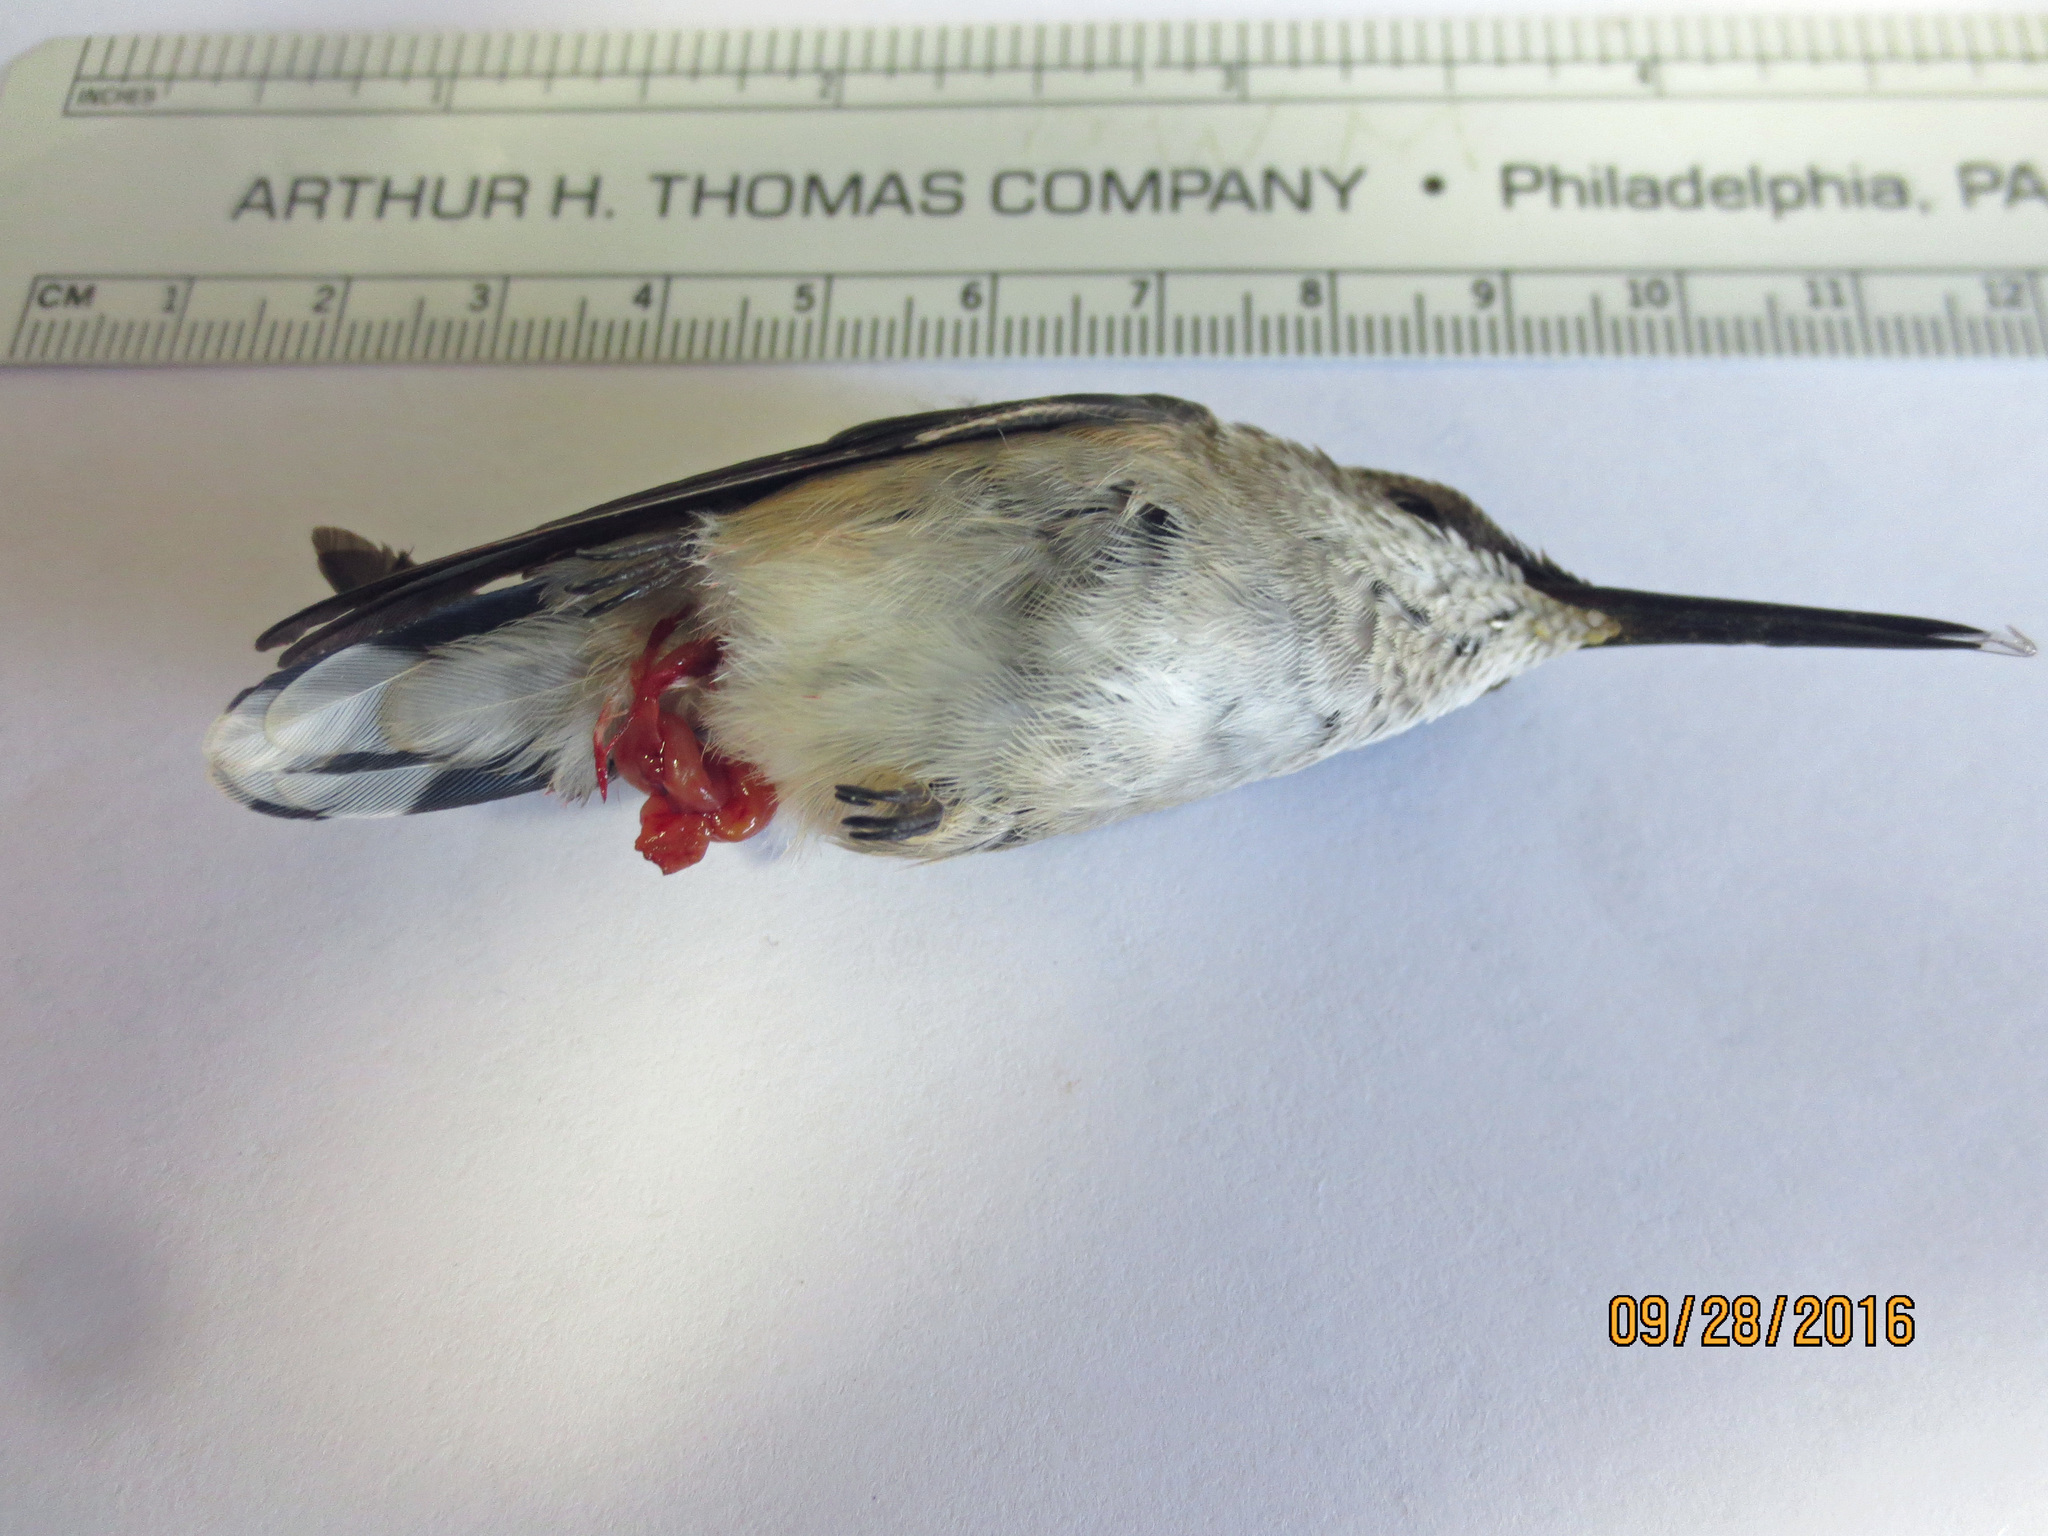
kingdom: Animalia
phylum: Chordata
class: Aves
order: Apodiformes
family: Trochilidae
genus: Archilochus
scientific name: Archilochus colubris
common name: Ruby-throated hummingbird
